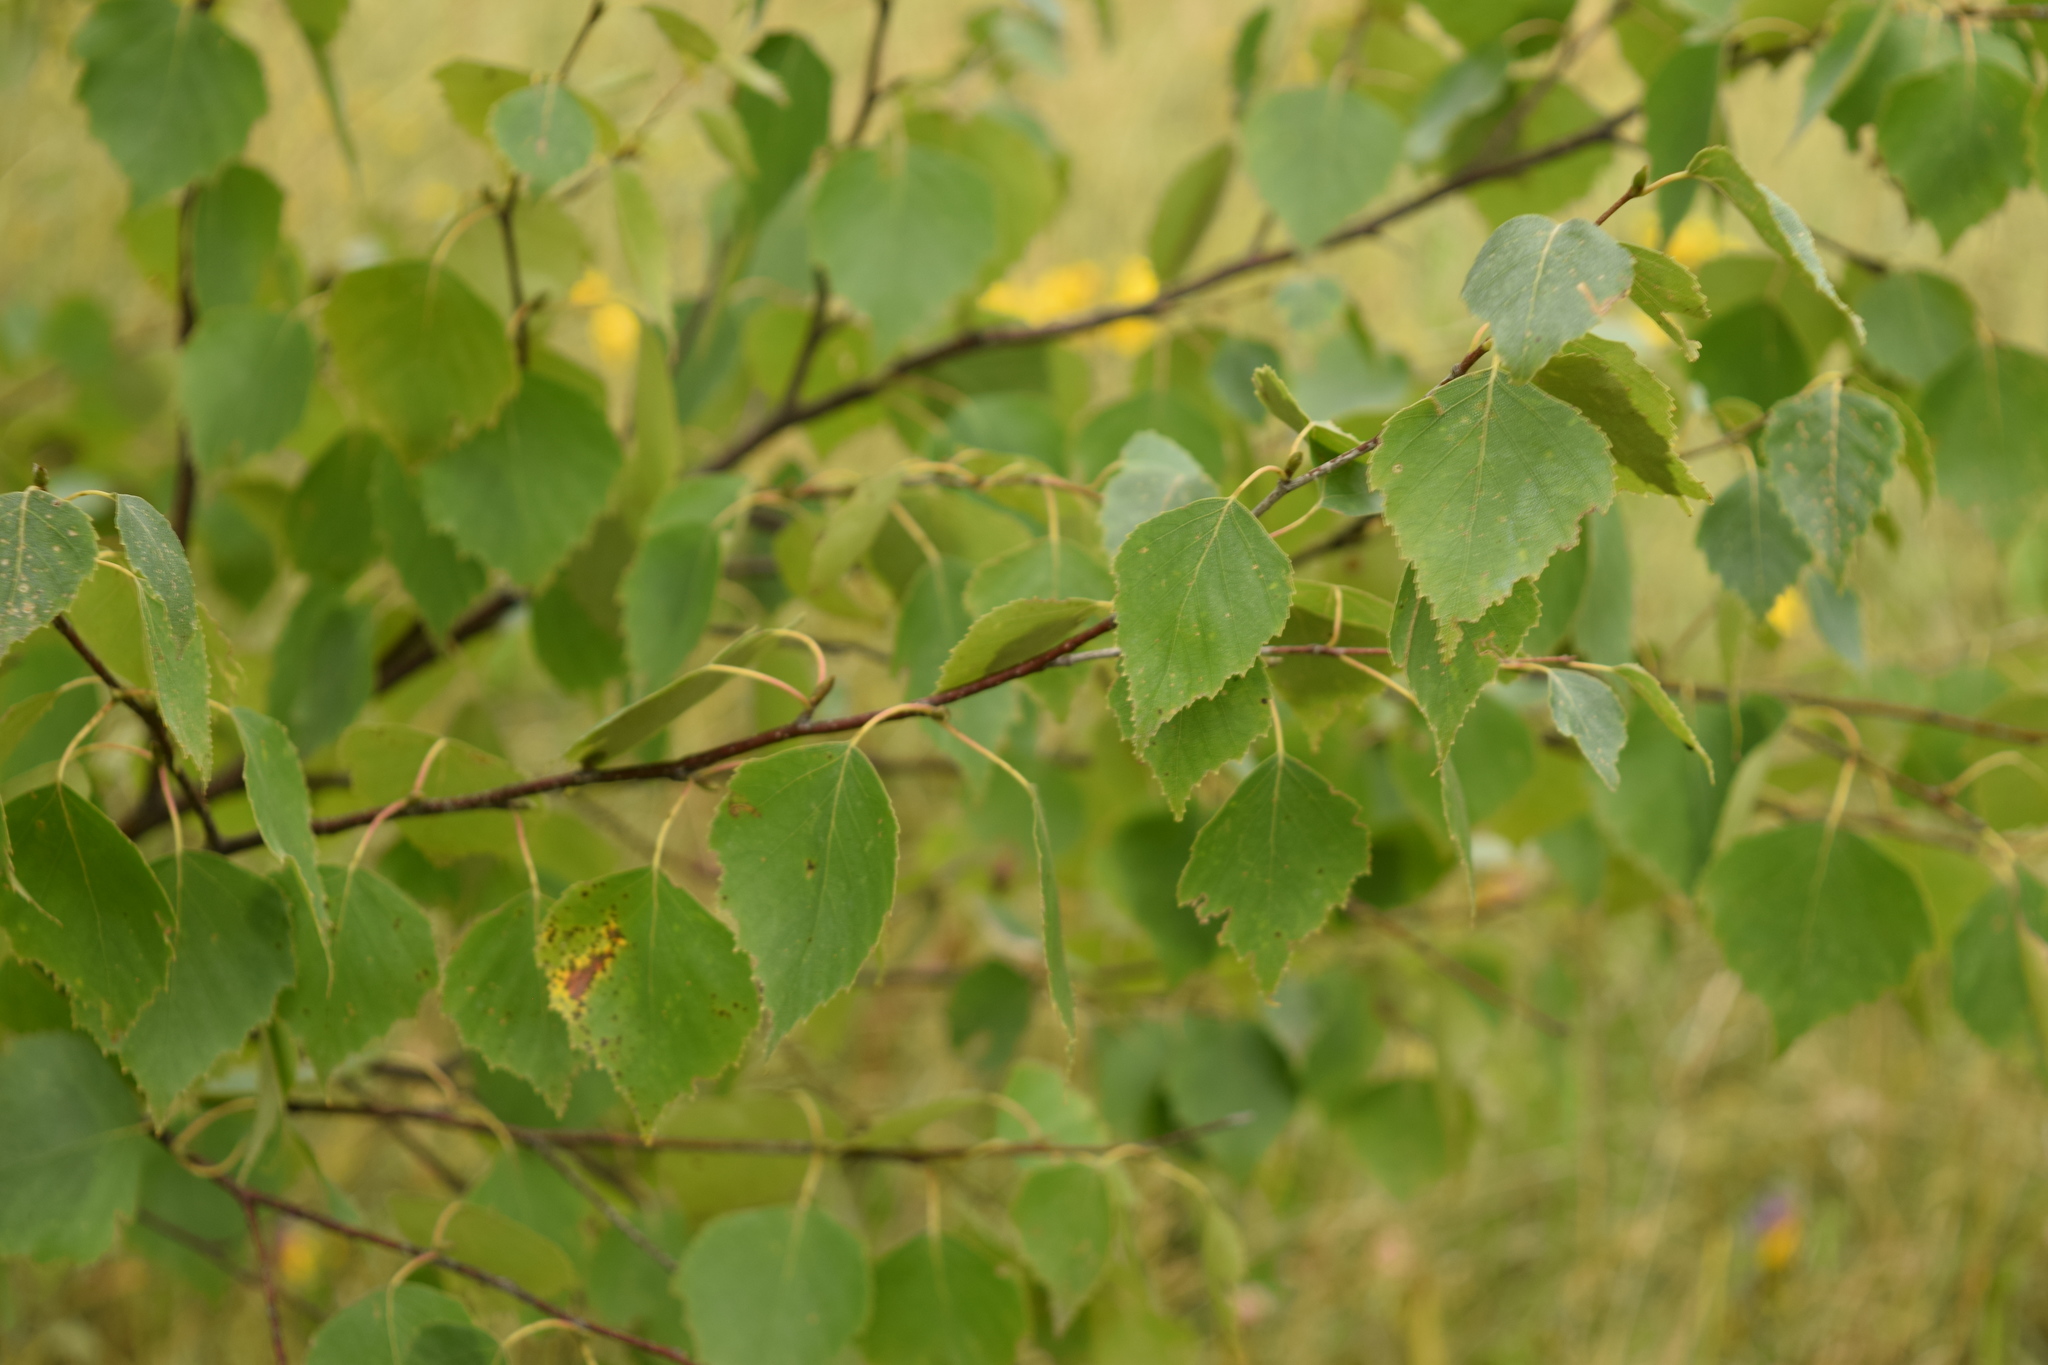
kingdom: Plantae
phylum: Tracheophyta
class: Magnoliopsida
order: Fagales
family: Betulaceae
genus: Betula
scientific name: Betula pendula
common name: Silver birch
